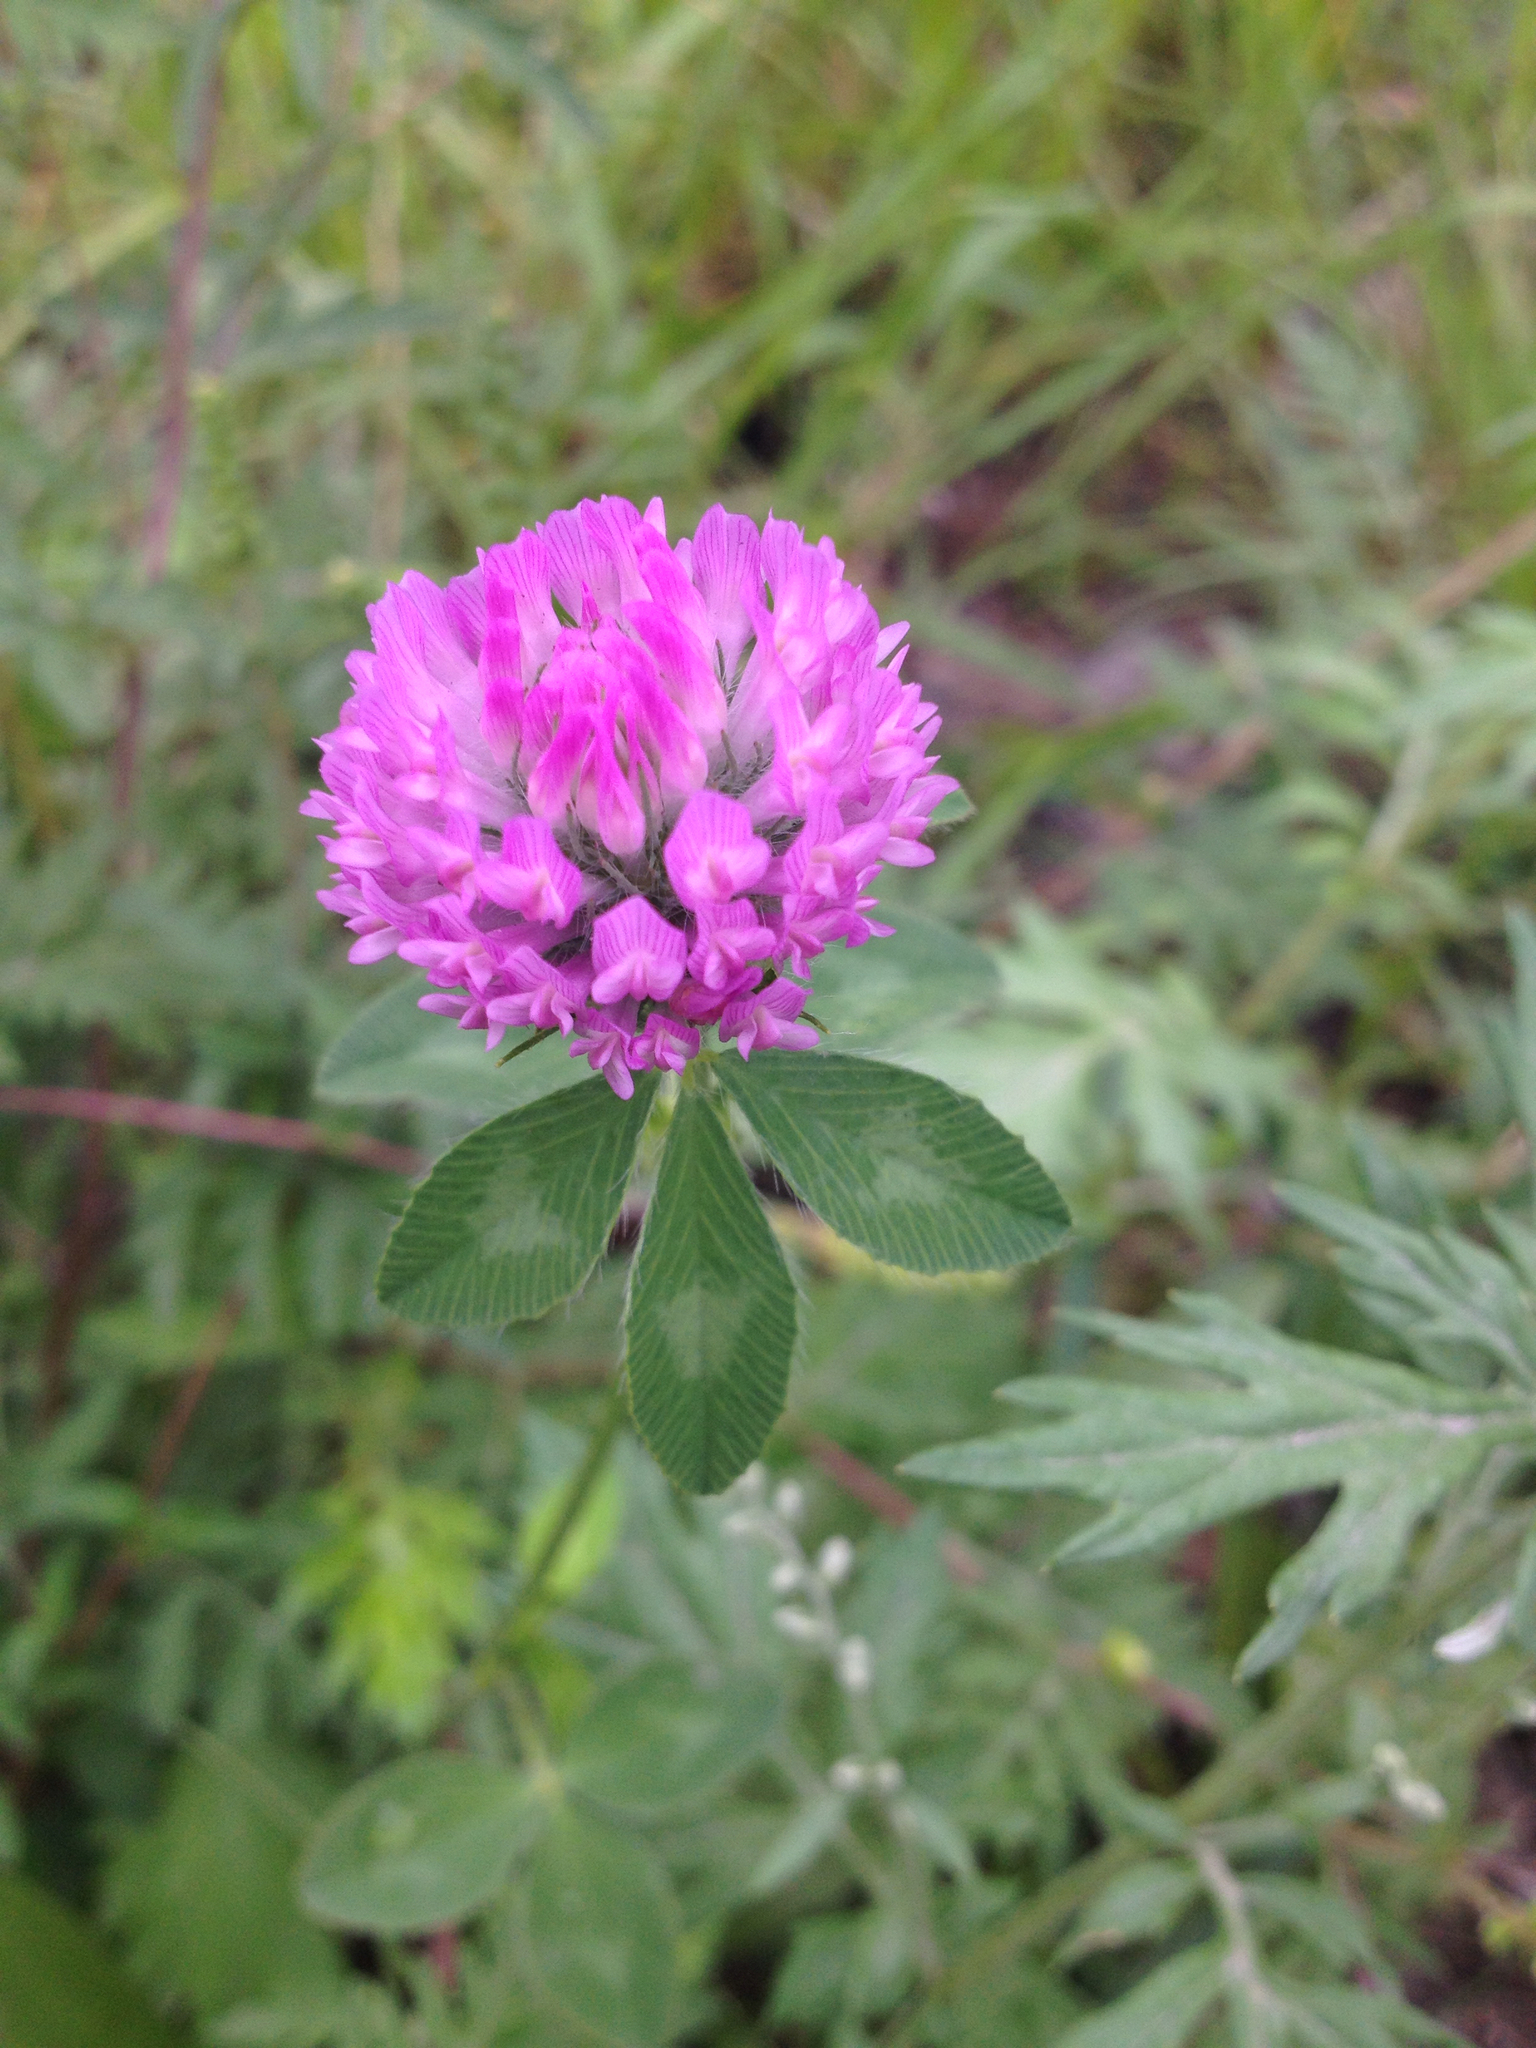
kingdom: Plantae
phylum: Tracheophyta
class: Magnoliopsida
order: Fabales
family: Fabaceae
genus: Trifolium
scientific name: Trifolium pratense
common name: Red clover
